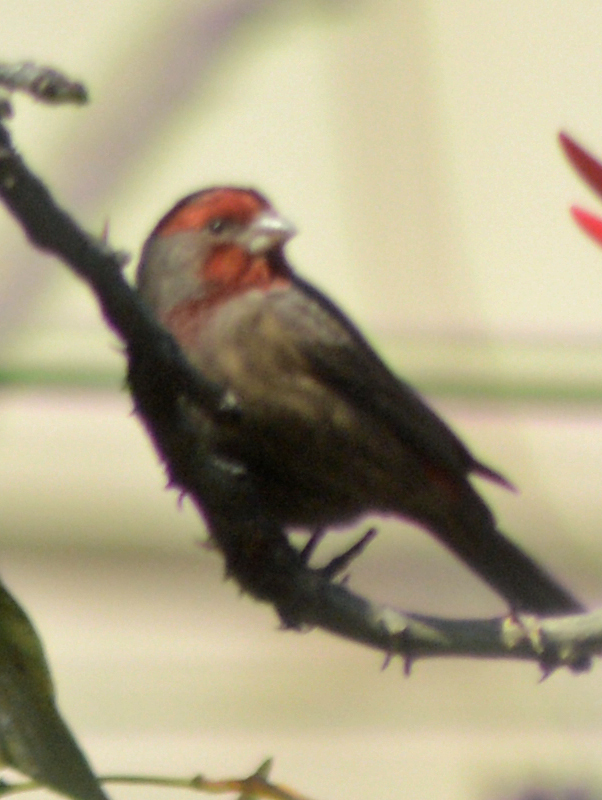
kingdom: Animalia
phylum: Chordata
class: Aves
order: Passeriformes
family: Fringillidae
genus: Haemorhous
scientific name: Haemorhous mexicanus
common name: House finch
